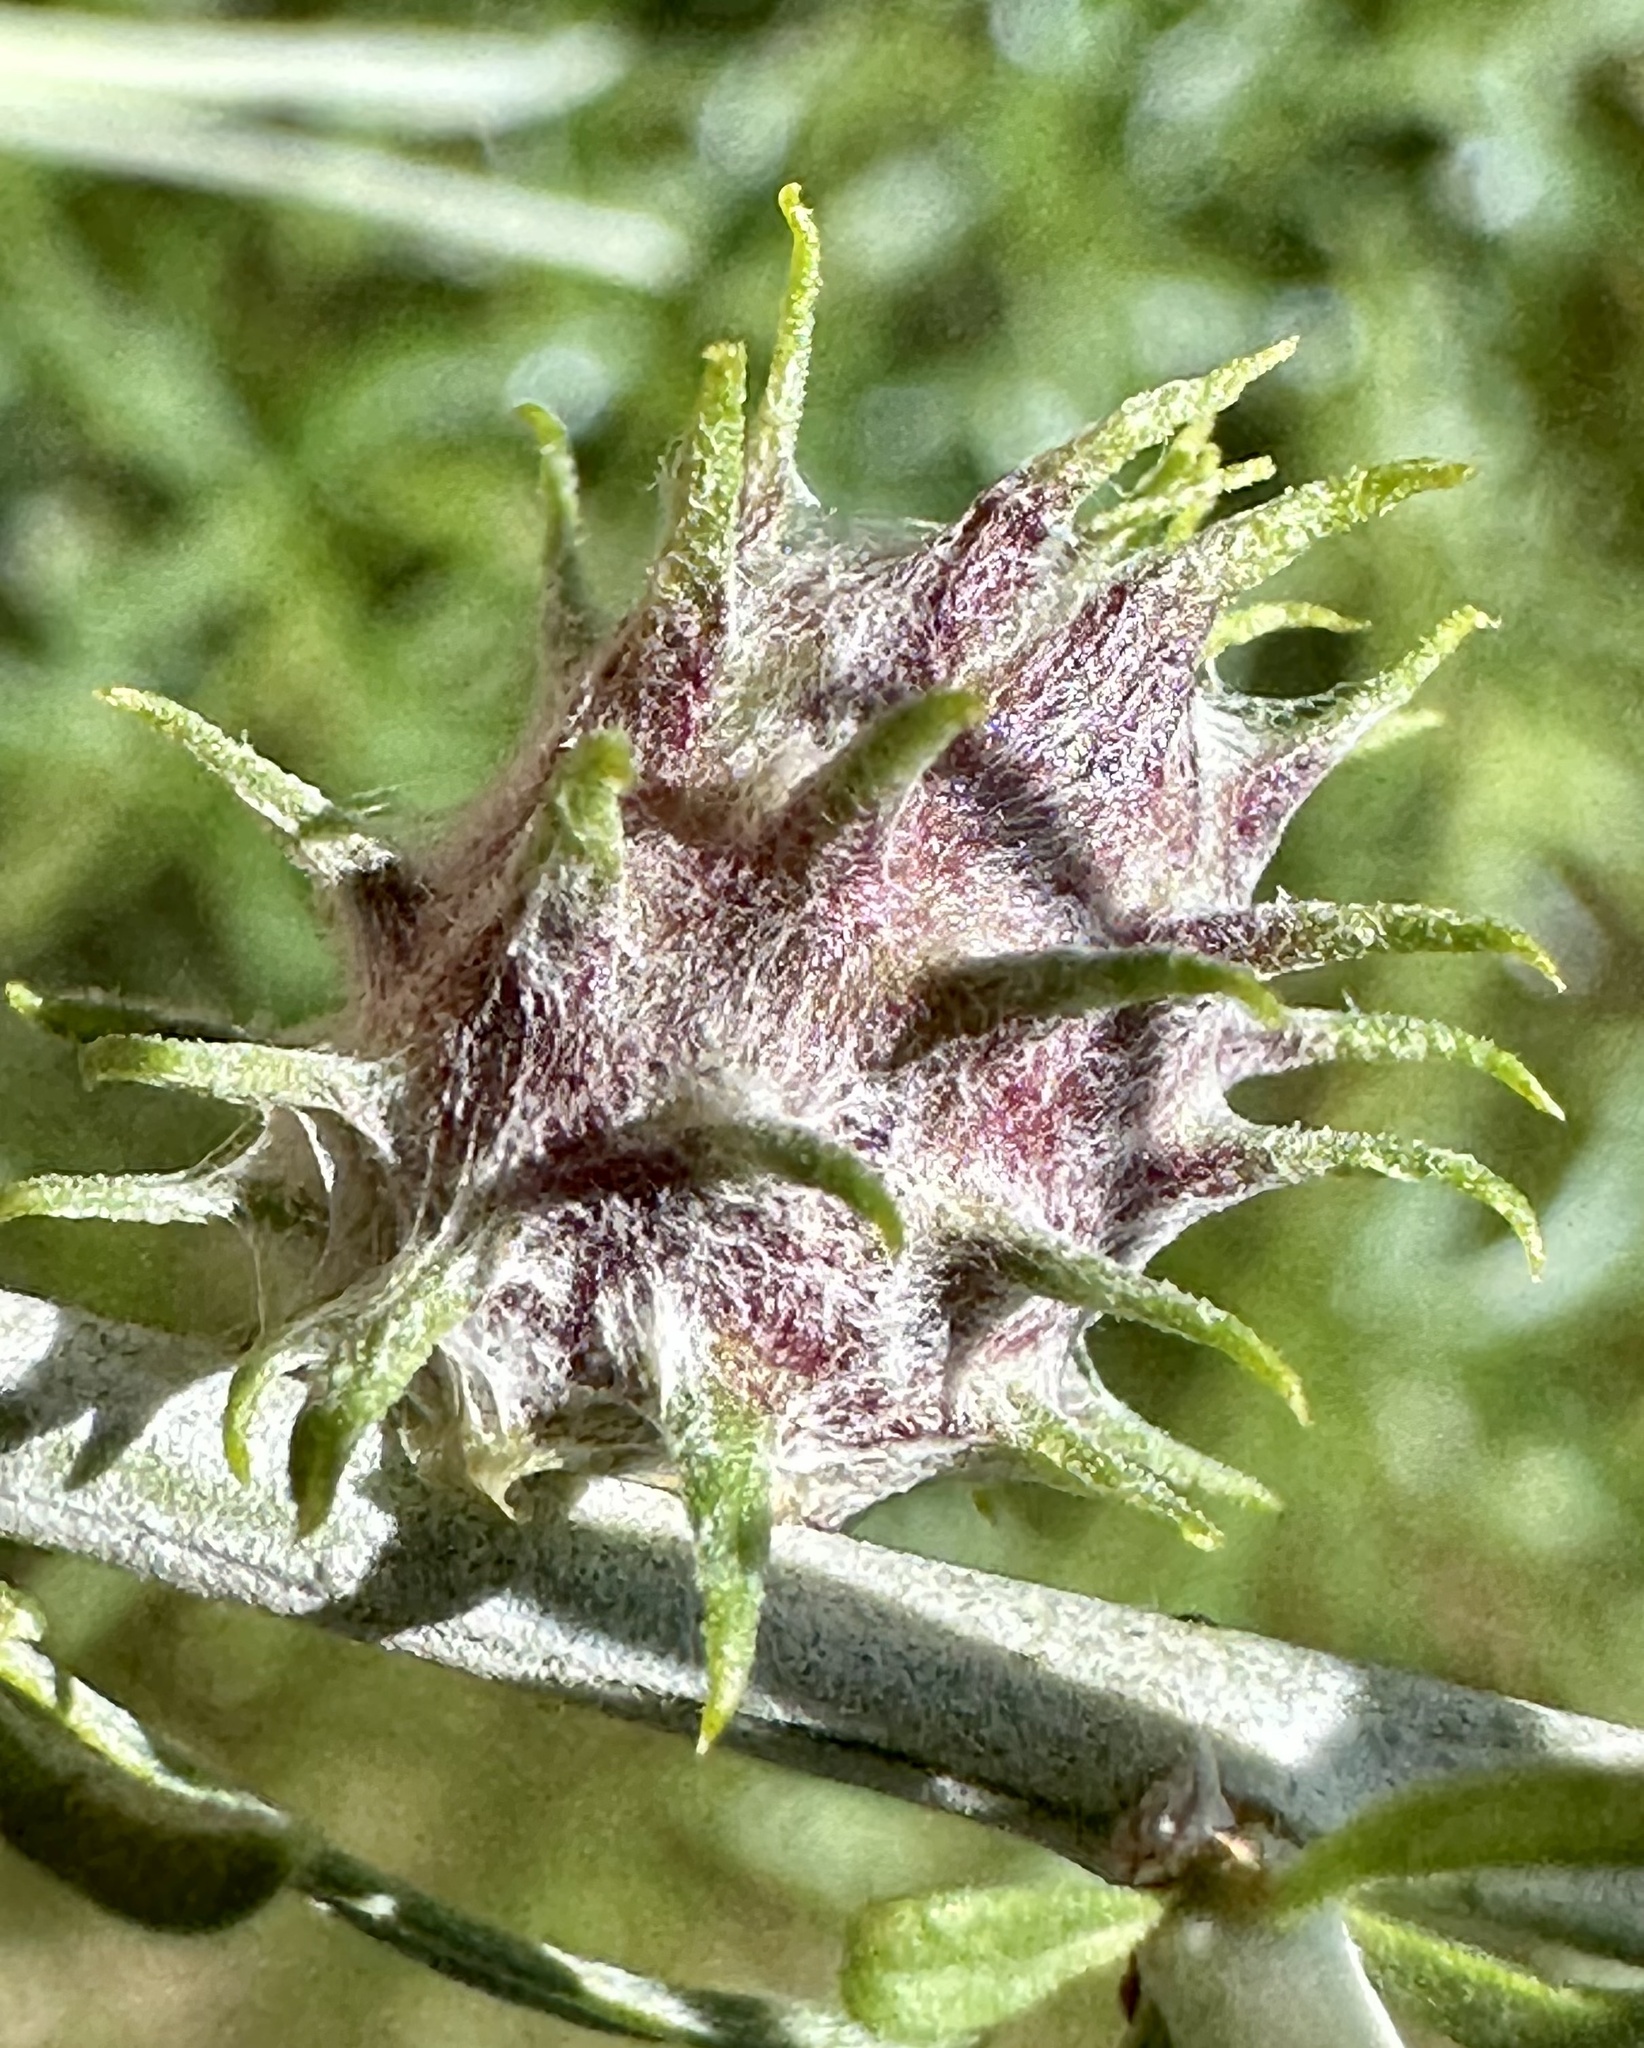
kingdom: Animalia
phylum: Arthropoda
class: Insecta
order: Diptera
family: Cecidomyiidae
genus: Rhopalomyia
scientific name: Rhopalomyia utahensis
